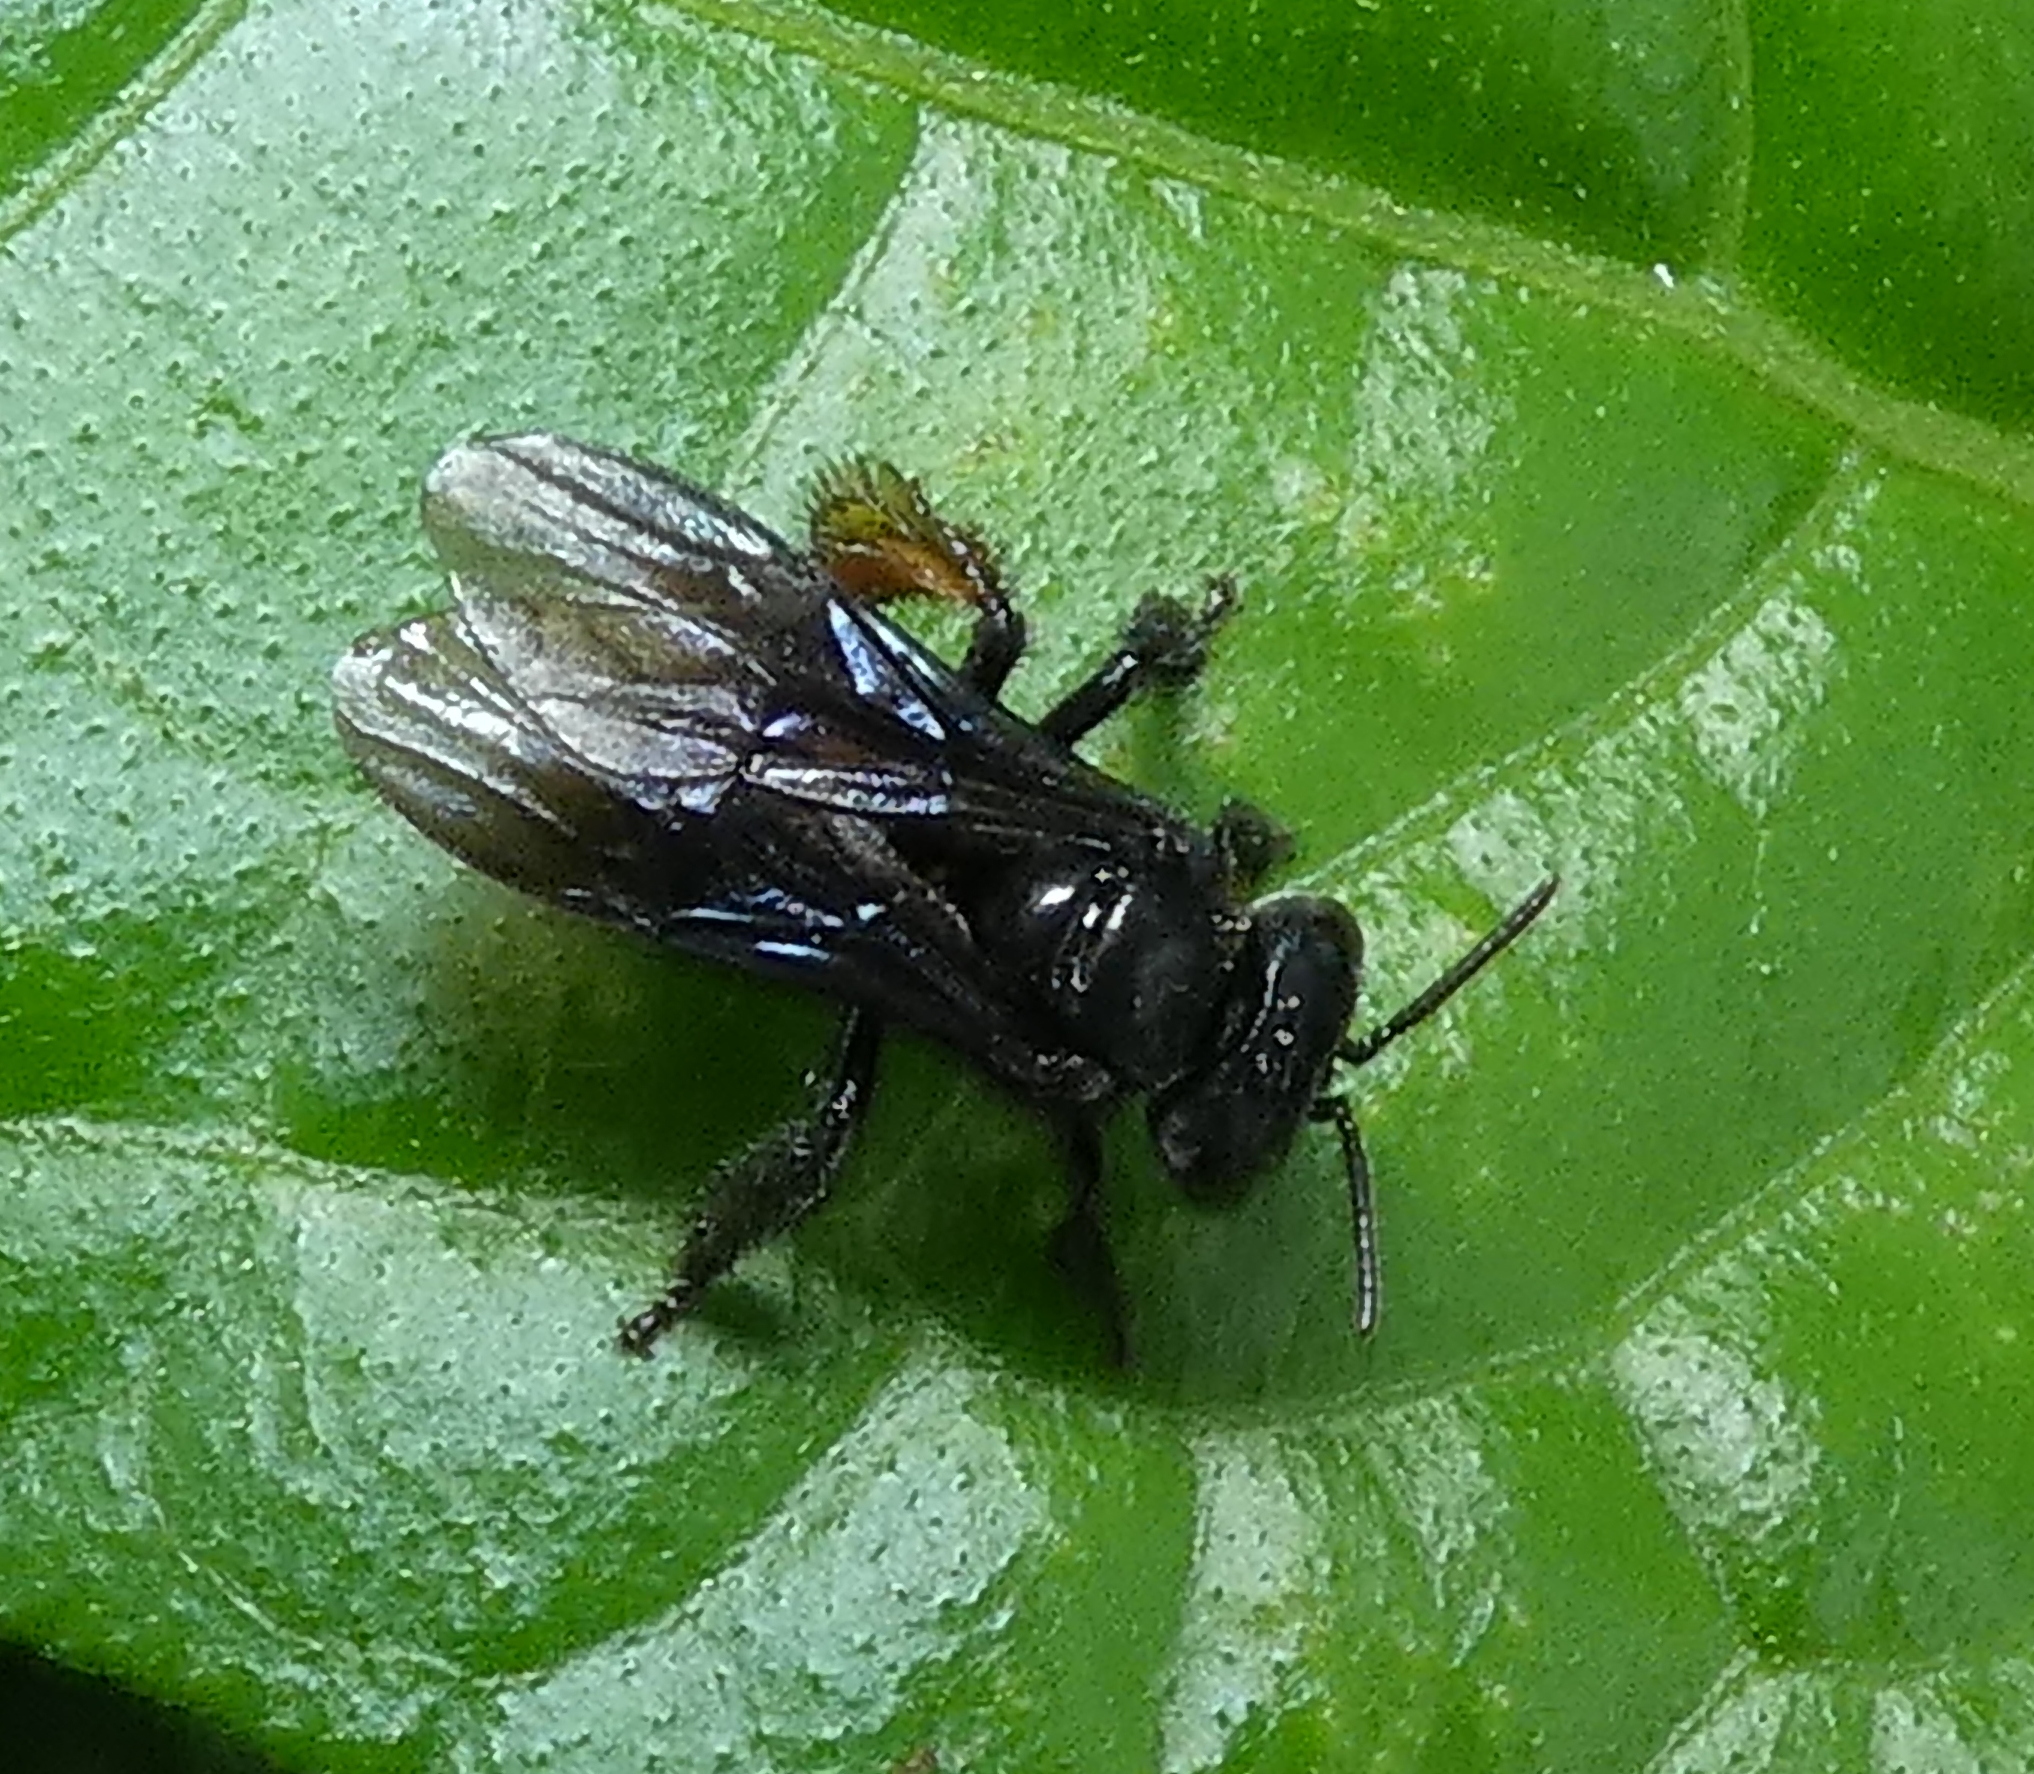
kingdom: Animalia
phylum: Arthropoda
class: Insecta
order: Hymenoptera
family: Apidae
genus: Trigona
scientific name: Trigona spinipes
